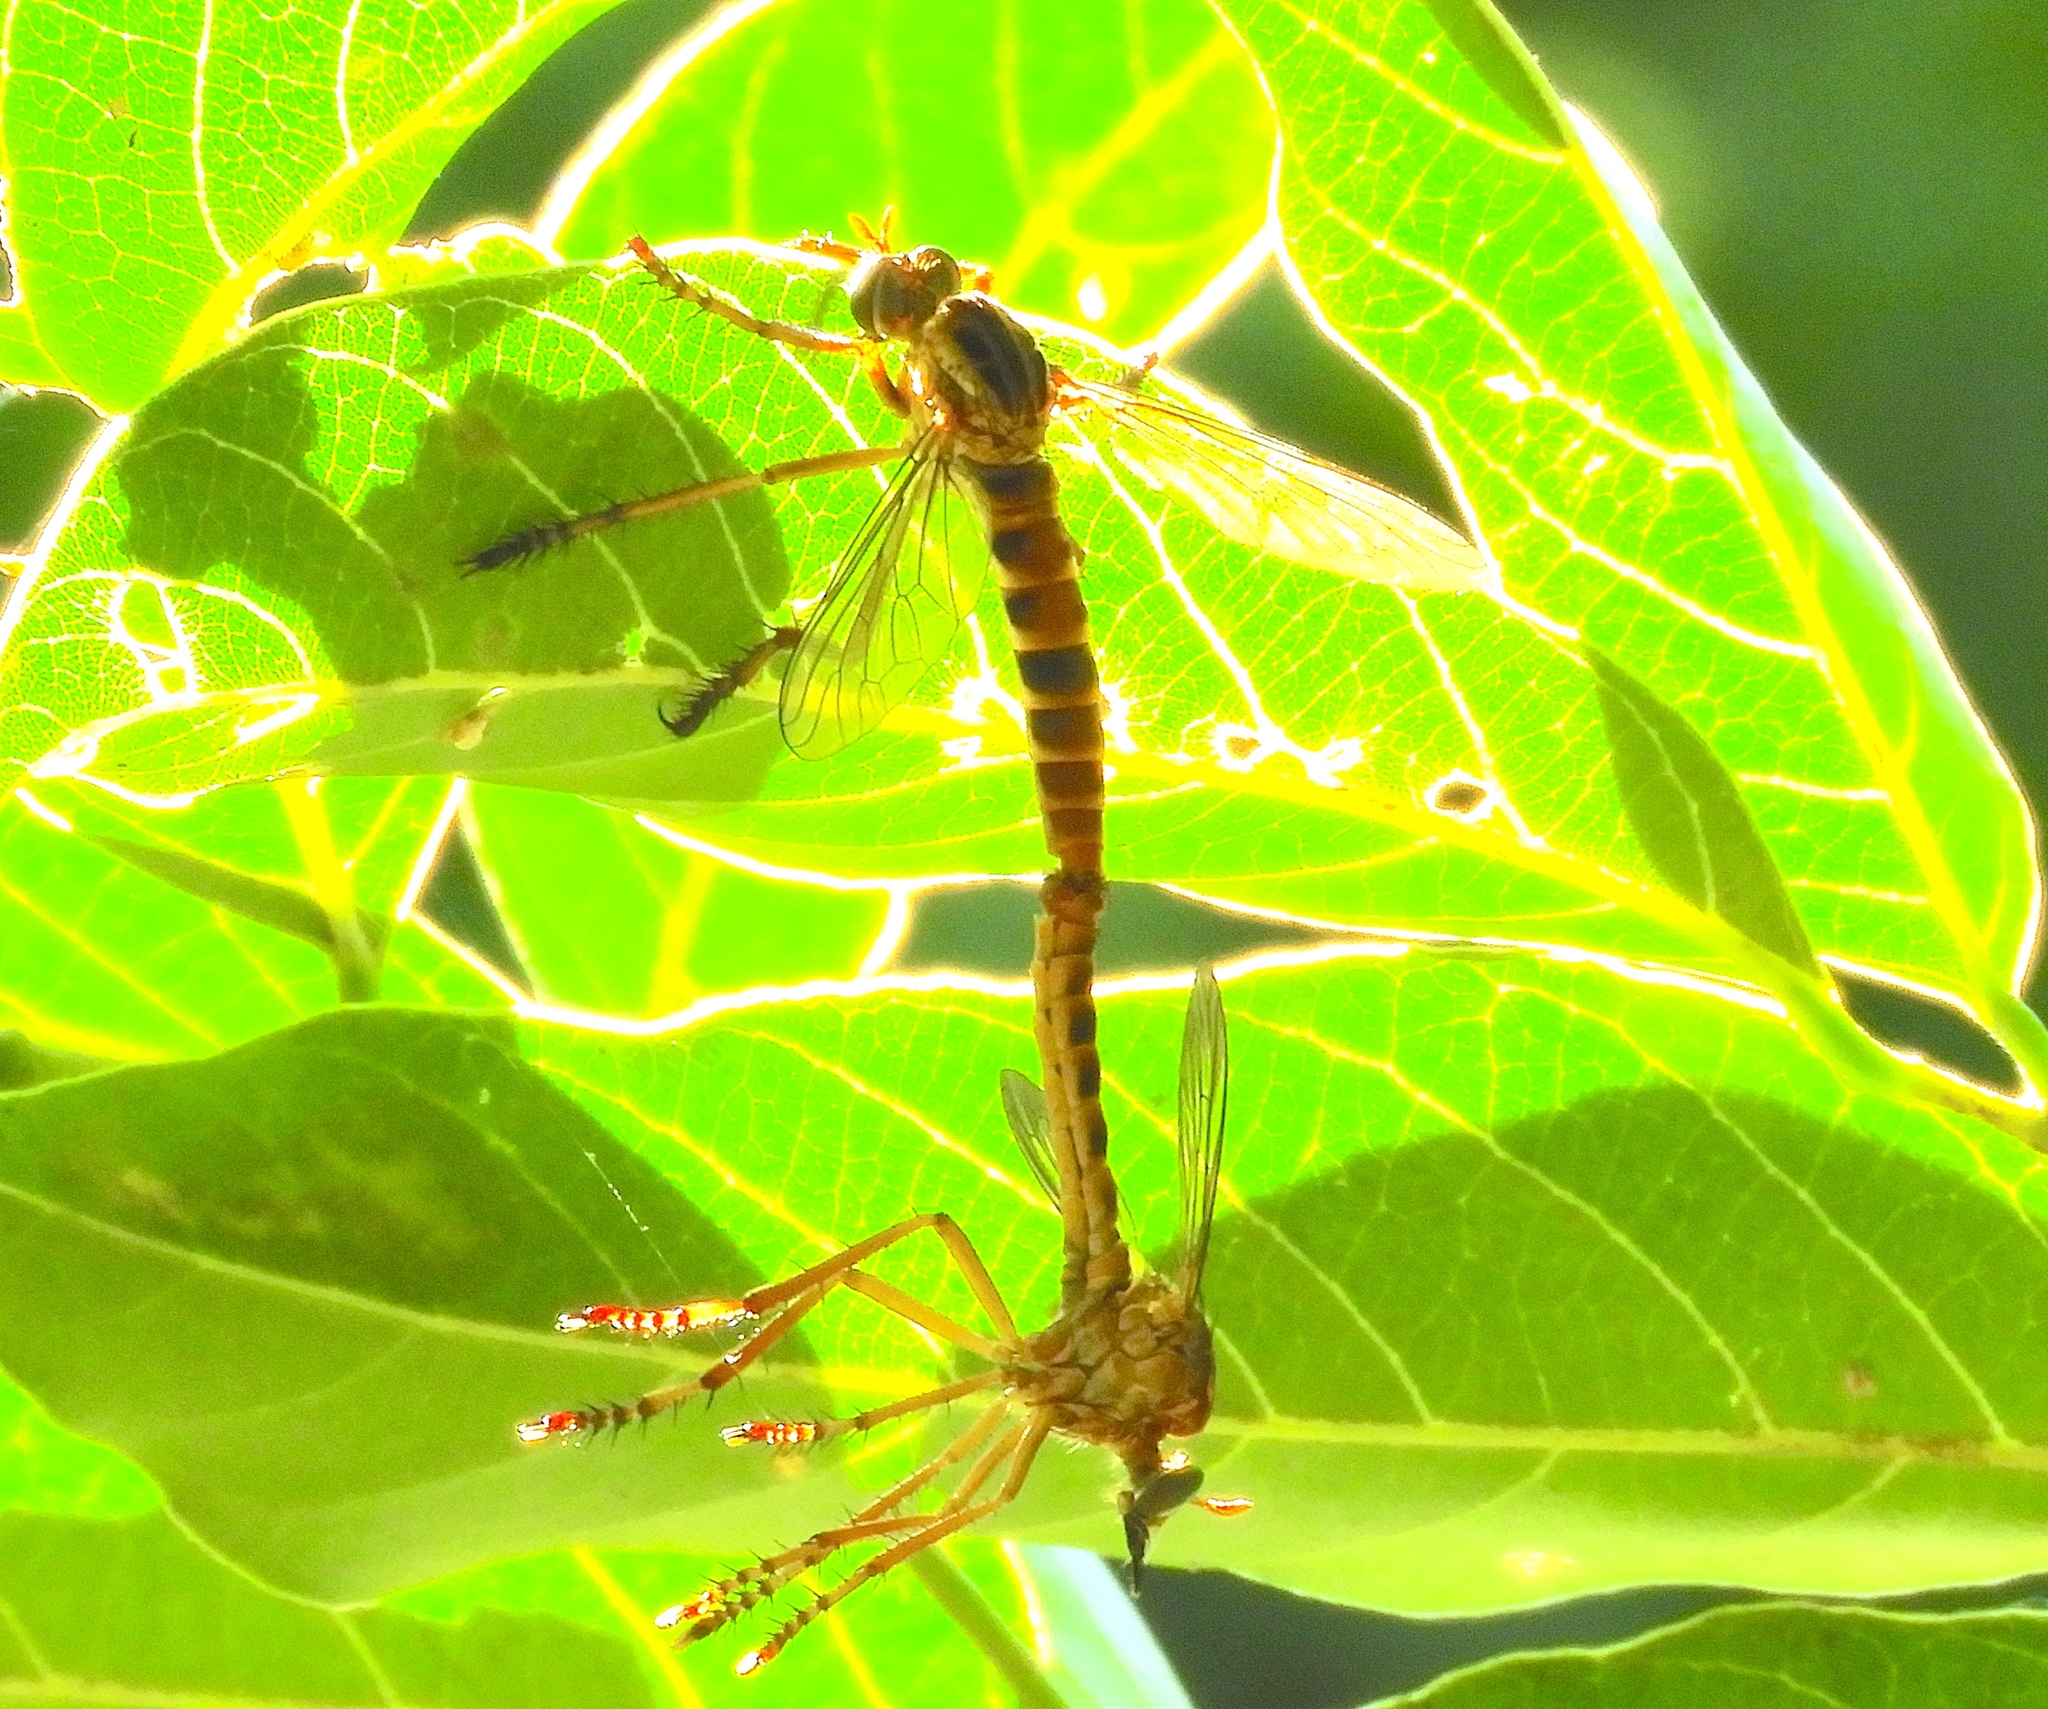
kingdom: Animalia
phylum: Arthropoda
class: Insecta
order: Diptera
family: Asilidae
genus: Diogmites
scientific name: Diogmites
